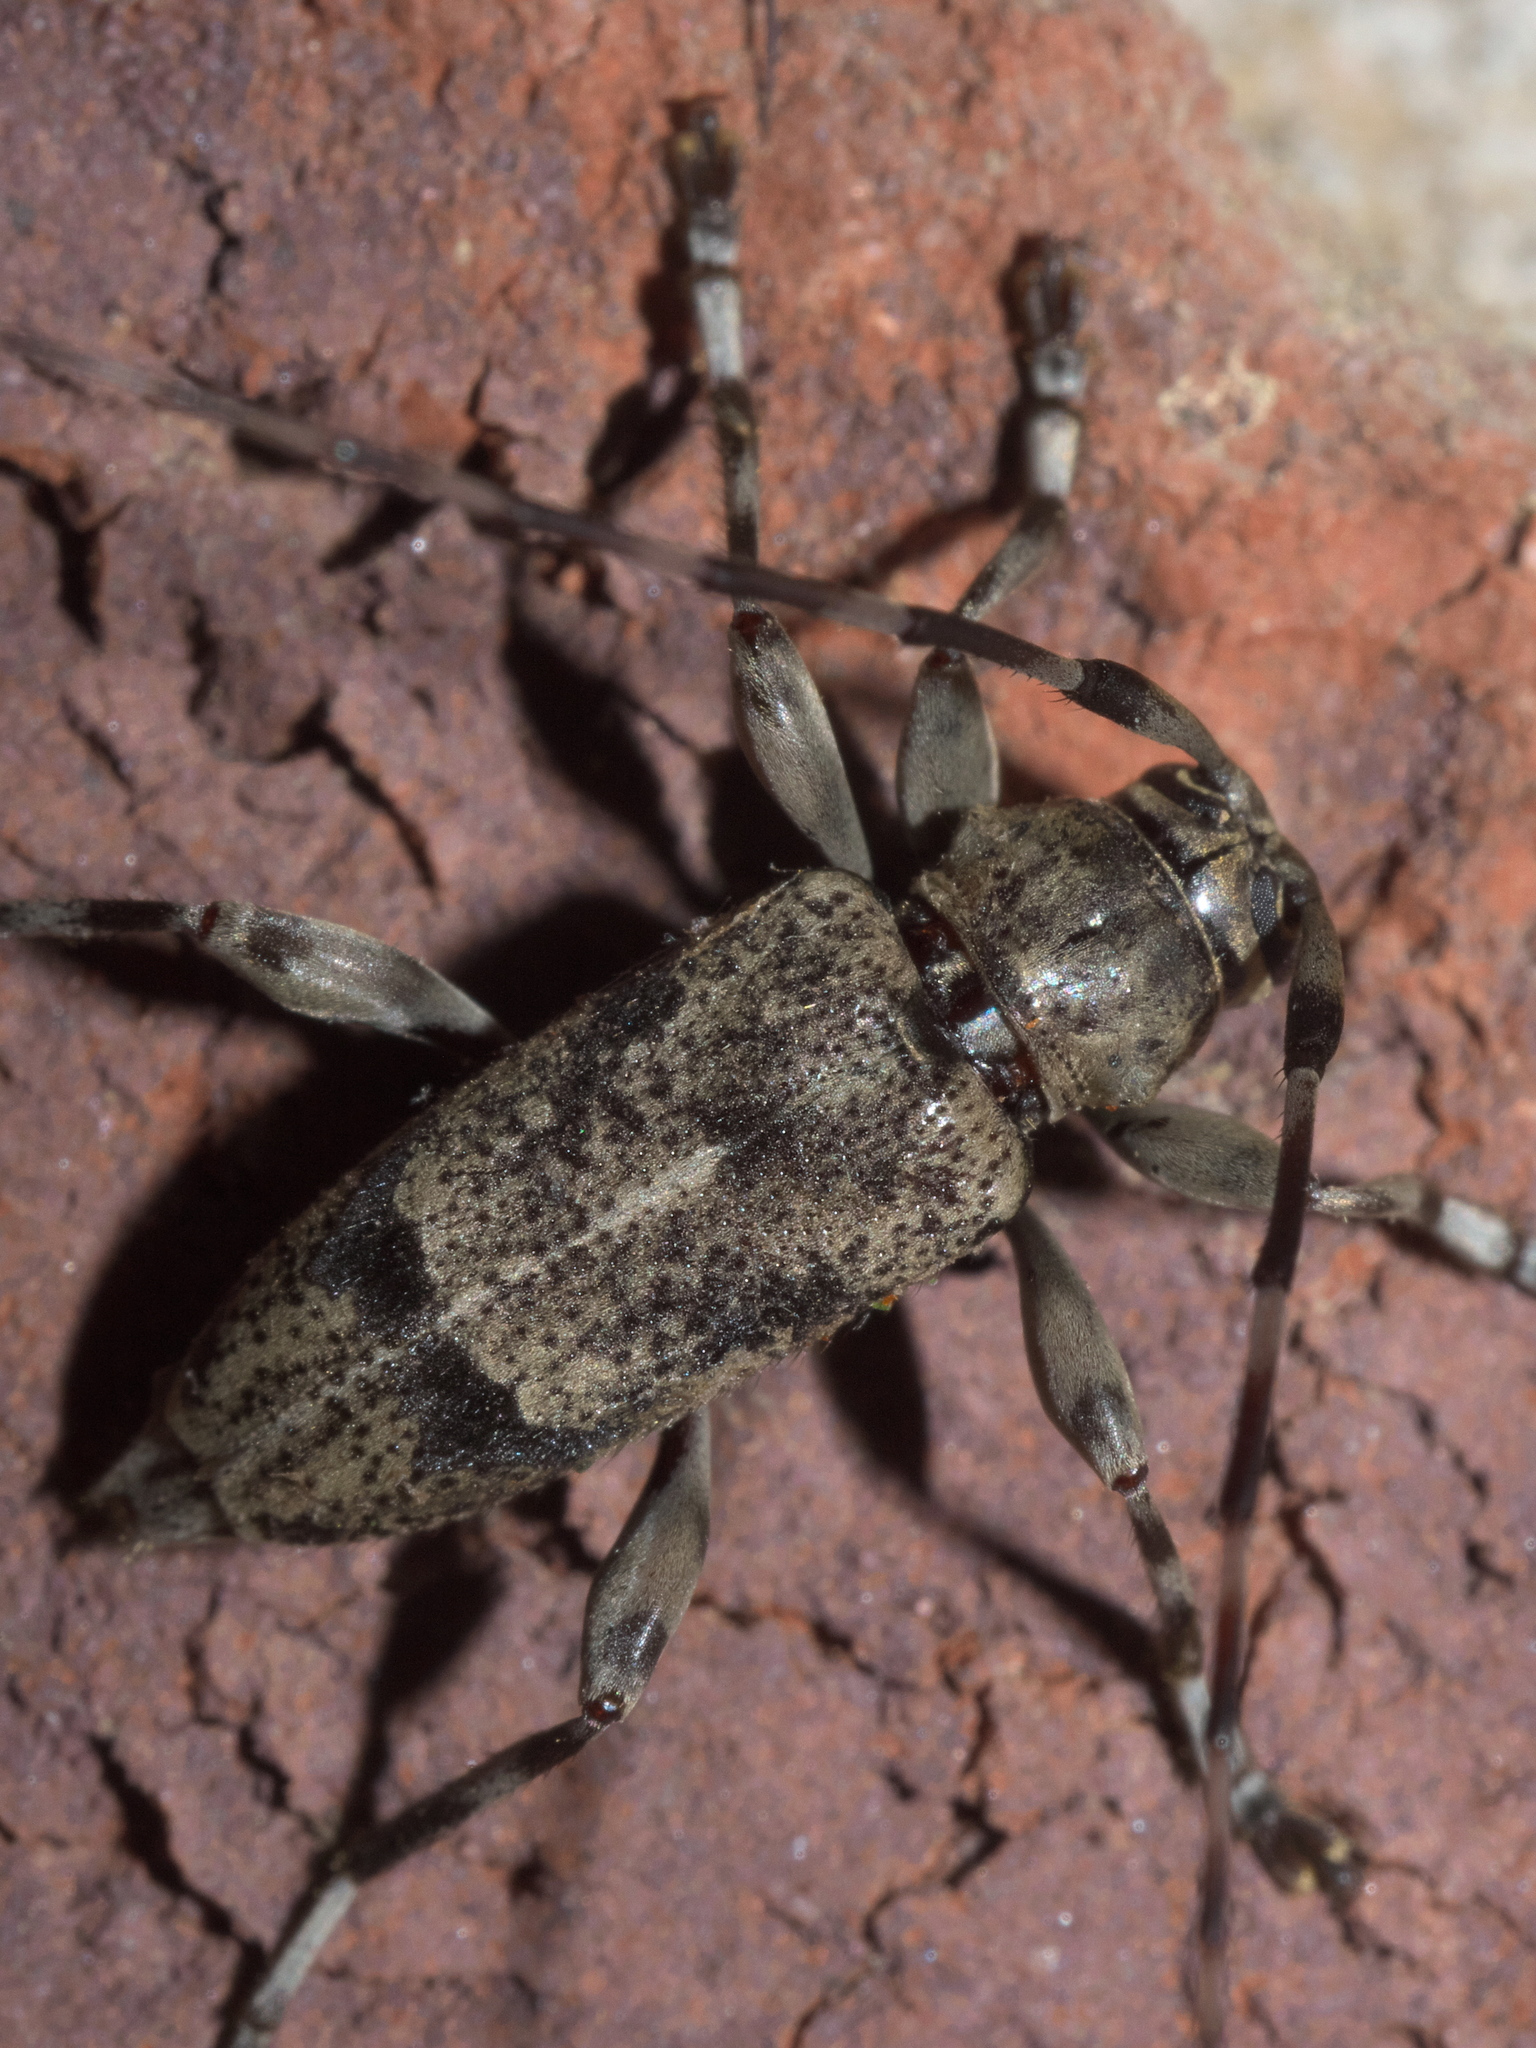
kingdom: Animalia
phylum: Arthropoda
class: Insecta
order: Coleoptera
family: Cerambycidae
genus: Graphisurus
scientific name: Graphisurus despectus
